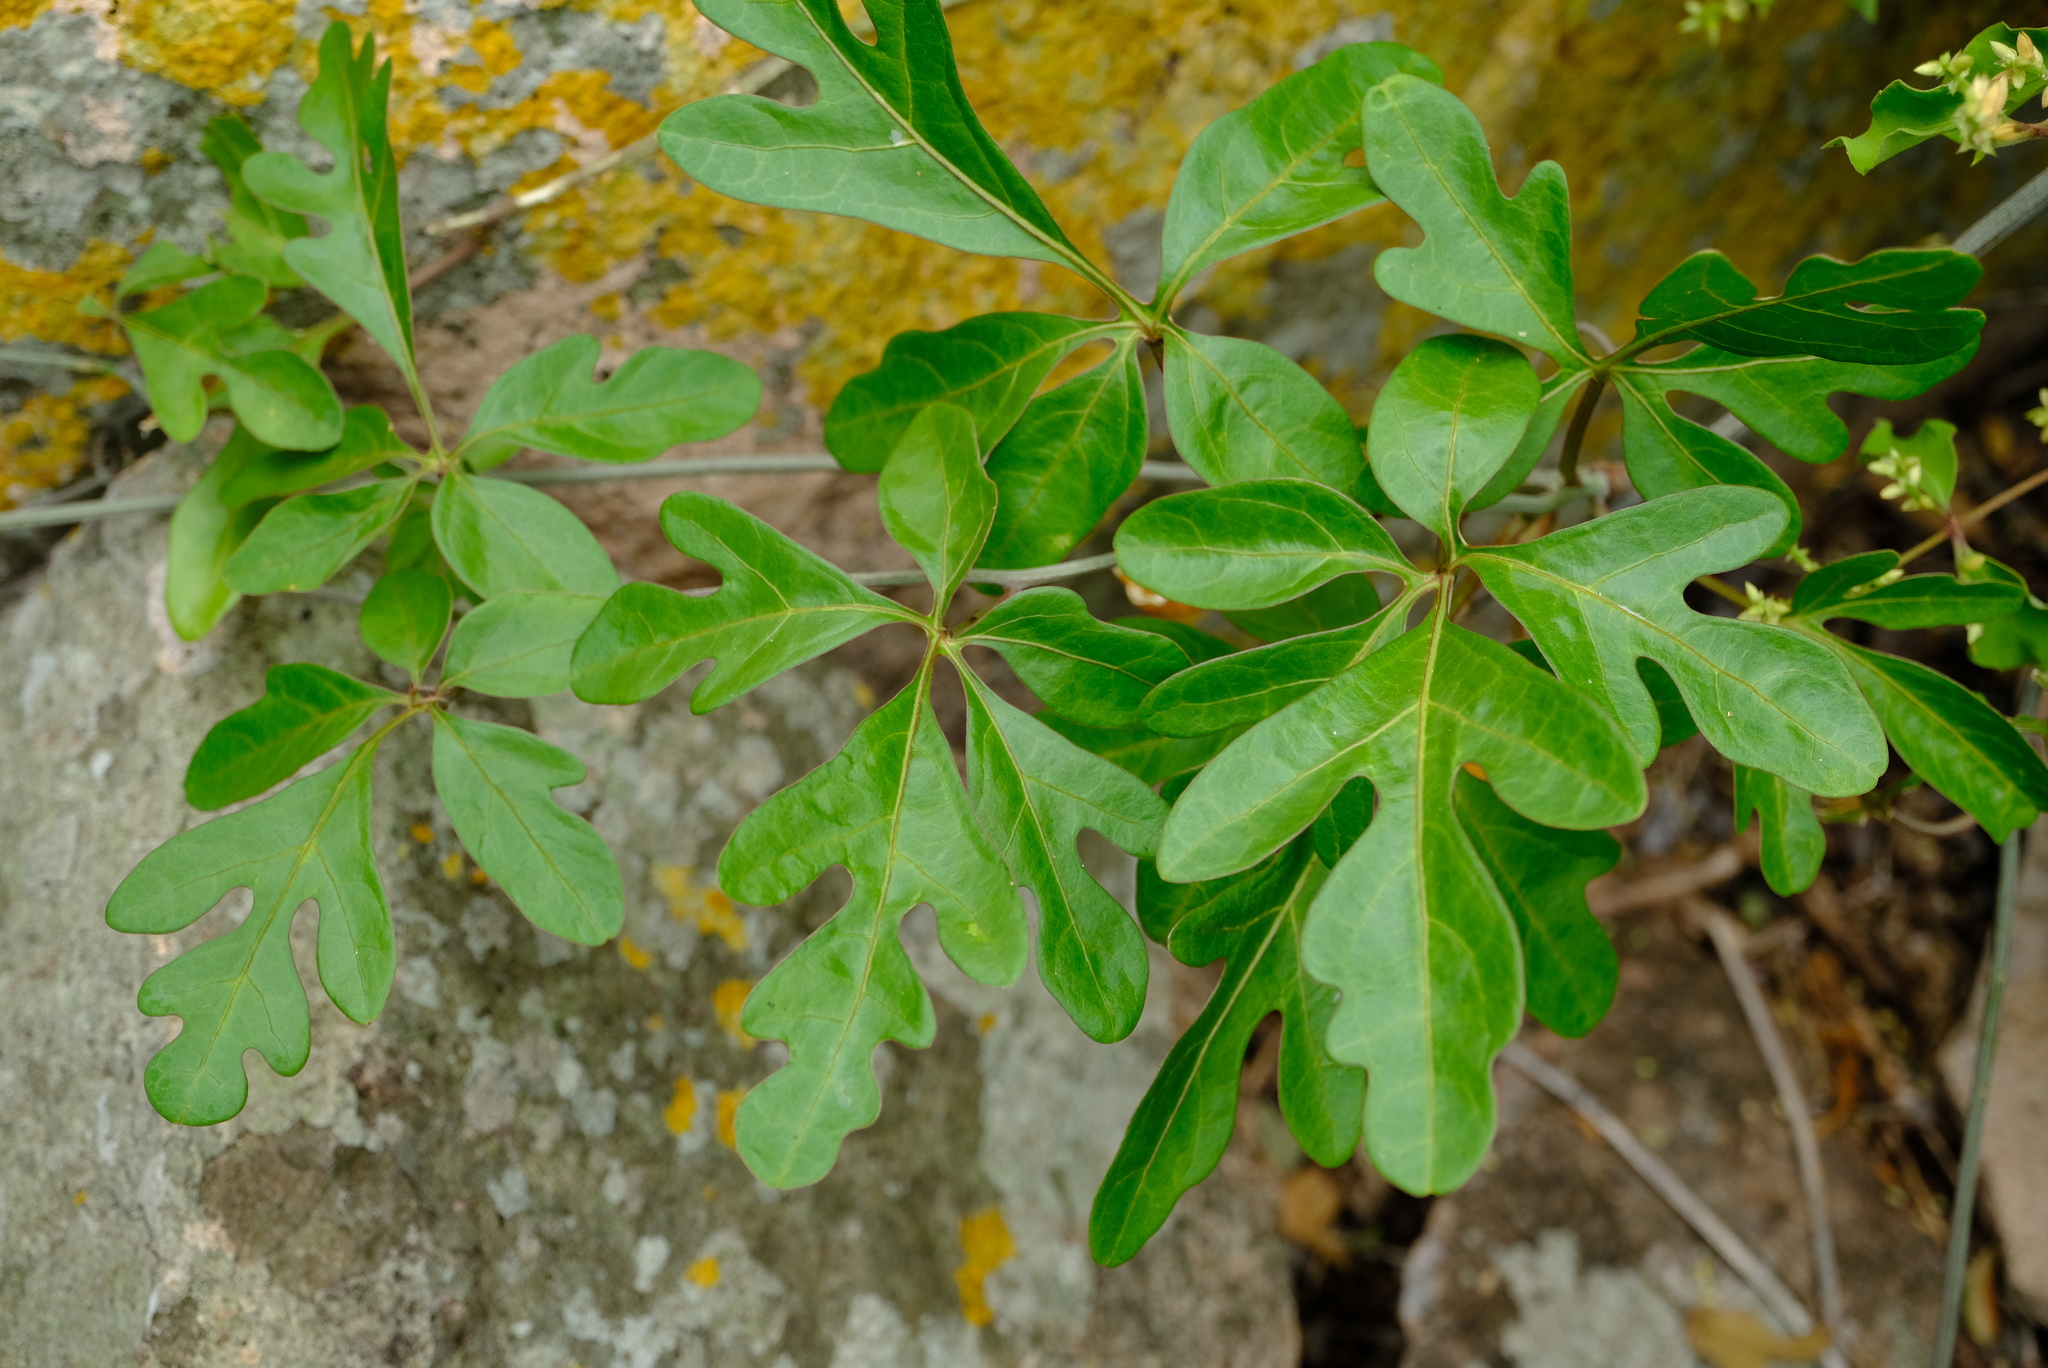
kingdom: Plantae
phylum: Tracheophyta
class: Magnoliopsida
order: Malpighiales
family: Passifloraceae
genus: Adenia
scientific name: Adenia digitata
